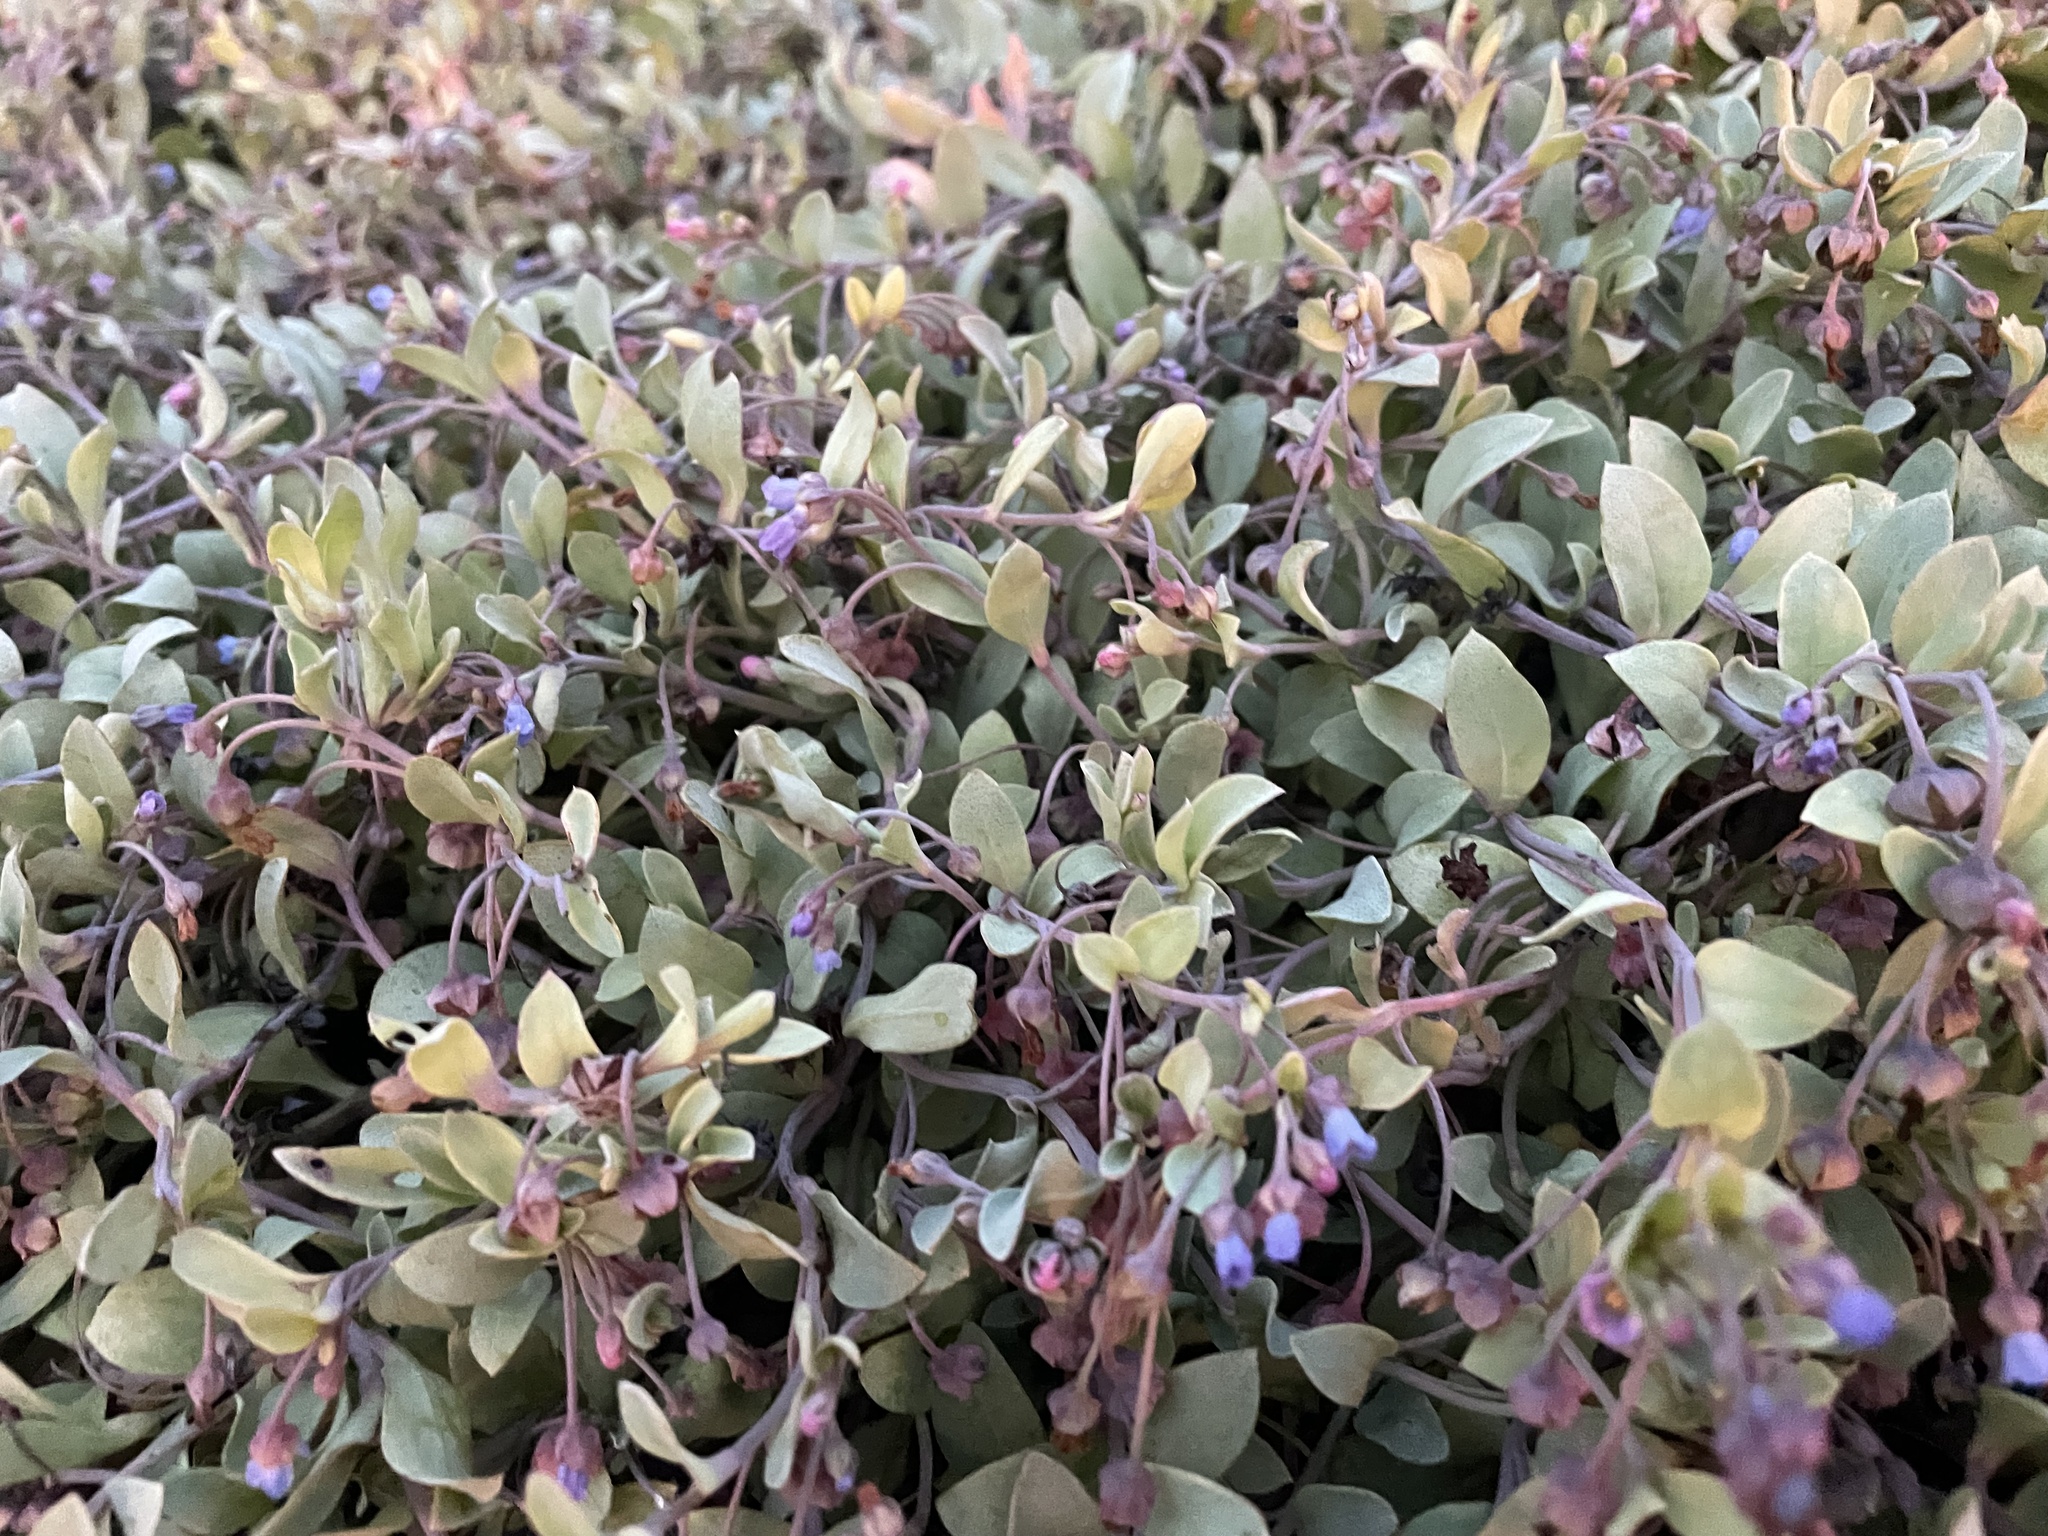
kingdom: Plantae
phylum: Tracheophyta
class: Magnoliopsida
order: Boraginales
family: Boraginaceae
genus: Mertensia
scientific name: Mertensia maritima
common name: Oysterplant
